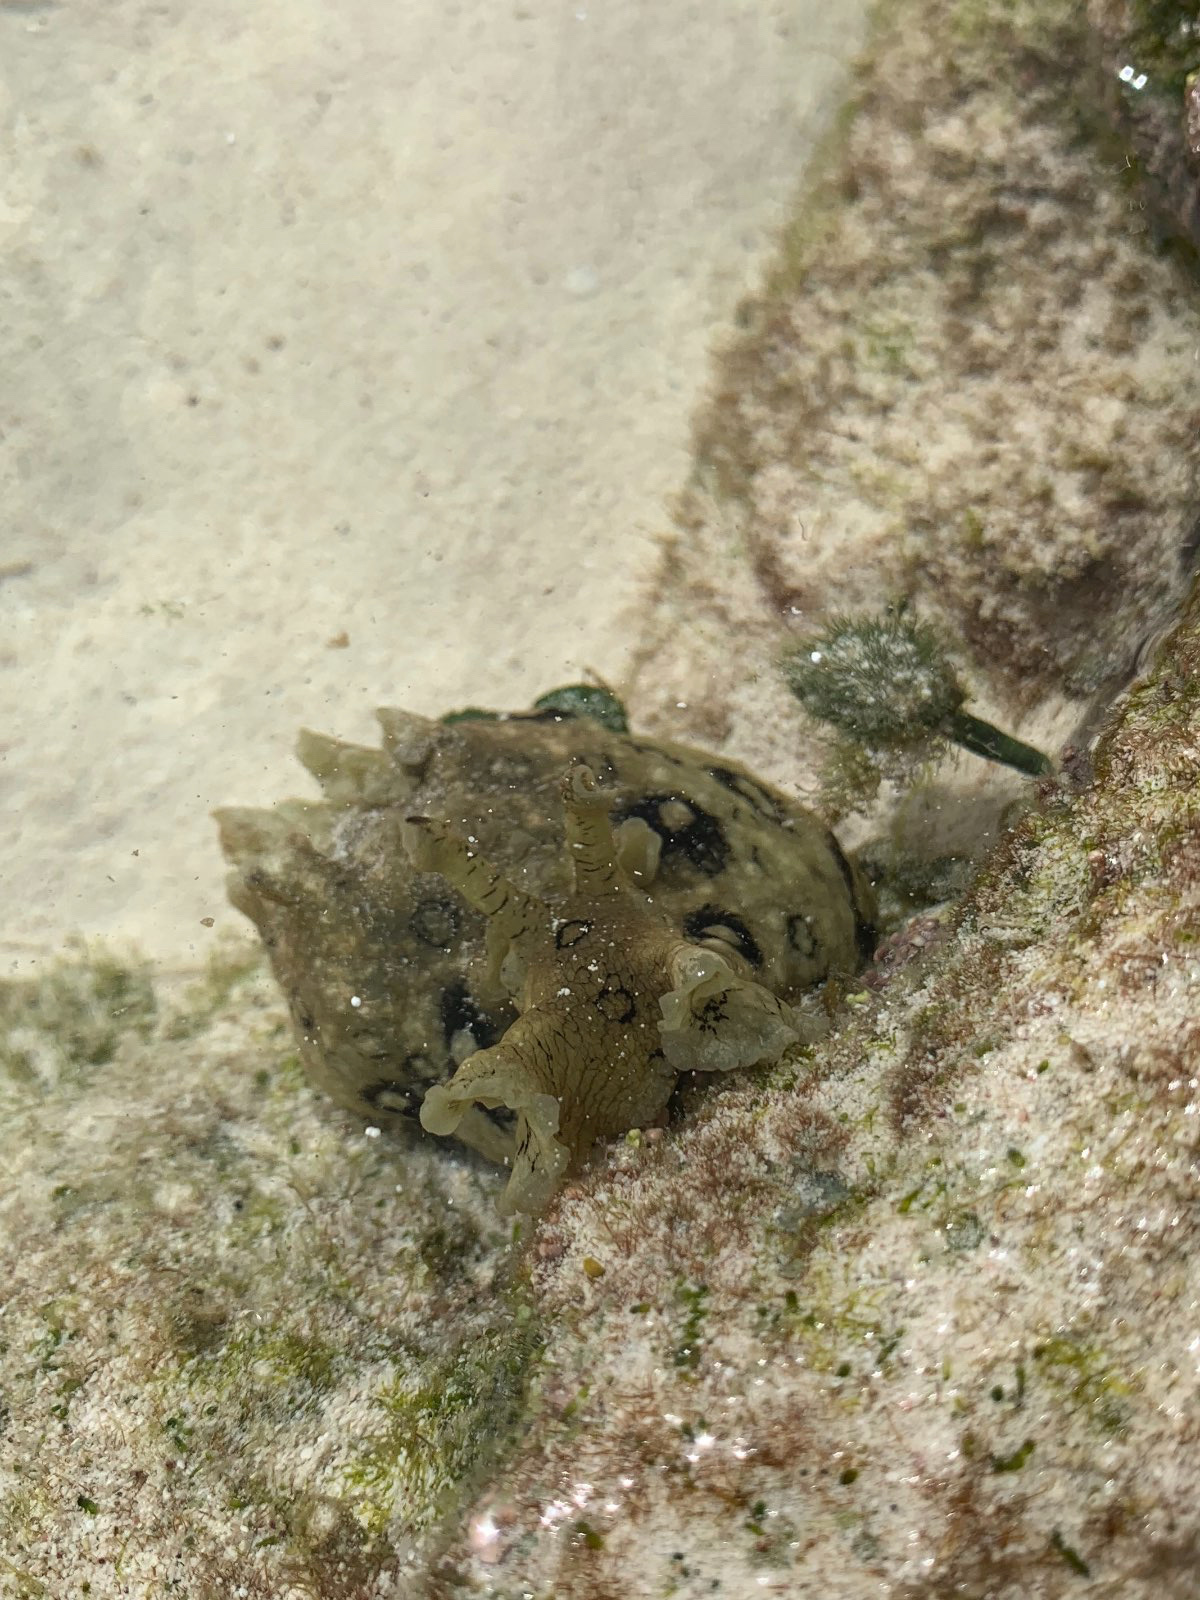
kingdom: Animalia
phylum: Mollusca
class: Gastropoda
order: Aplysiida
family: Aplysiidae
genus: Aplysia
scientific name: Aplysia dactylomela
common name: Large-spotted sea hare
